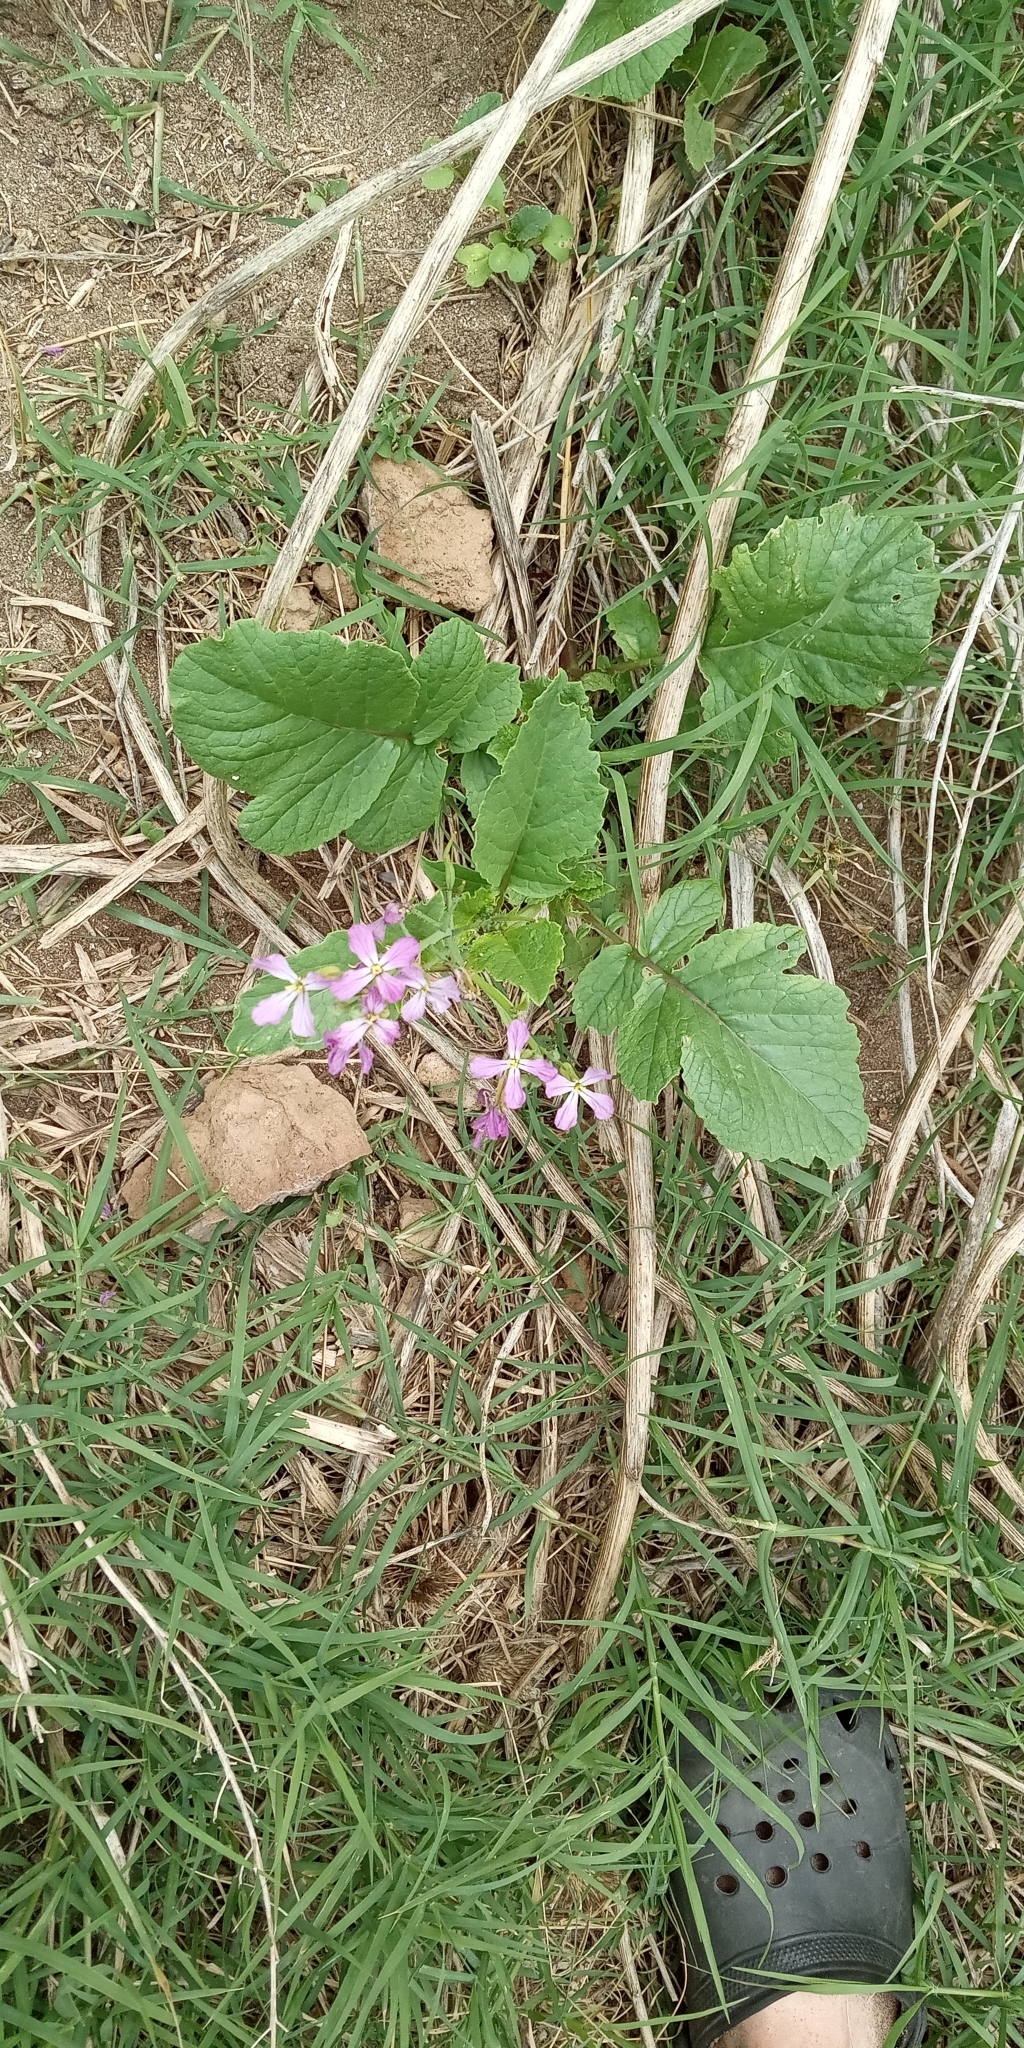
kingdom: Plantae
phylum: Tracheophyta
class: Magnoliopsida
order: Brassicales
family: Brassicaceae
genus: Raphanus
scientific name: Raphanus sativus
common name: Cultivated radish
